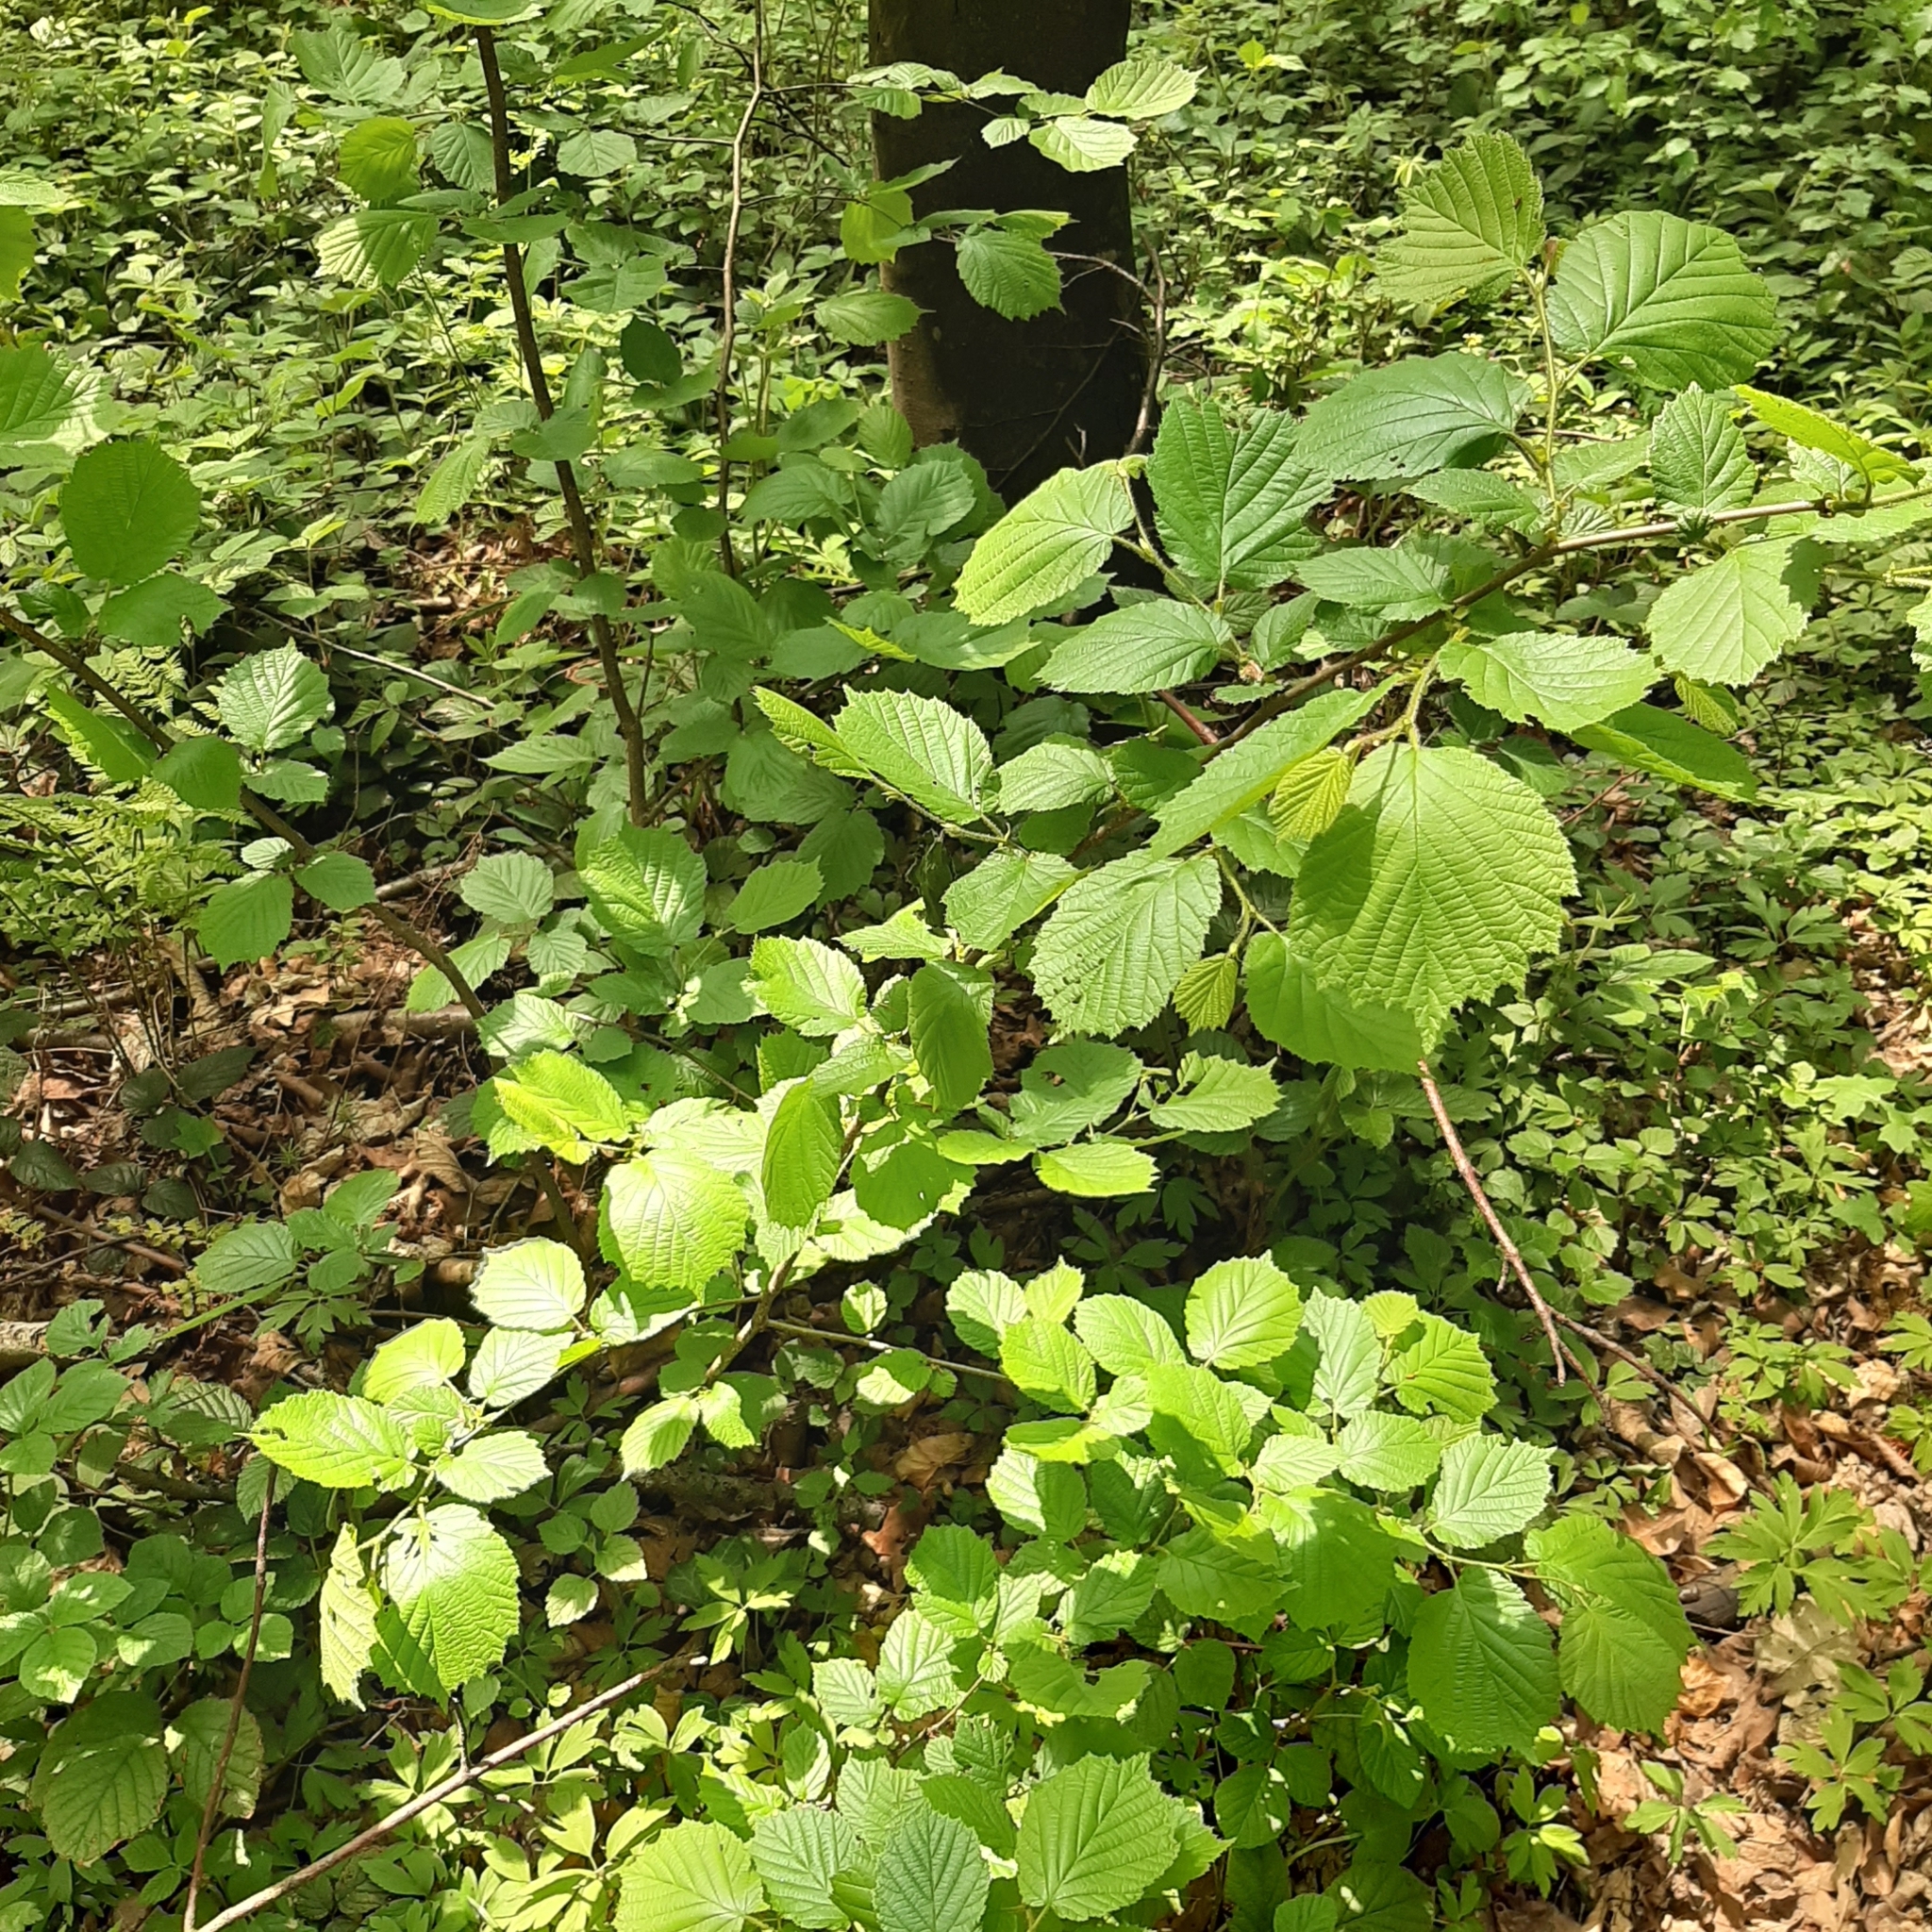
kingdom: Plantae
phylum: Tracheophyta
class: Magnoliopsida
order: Fagales
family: Betulaceae
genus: Corylus
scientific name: Corylus avellana
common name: European hazel
